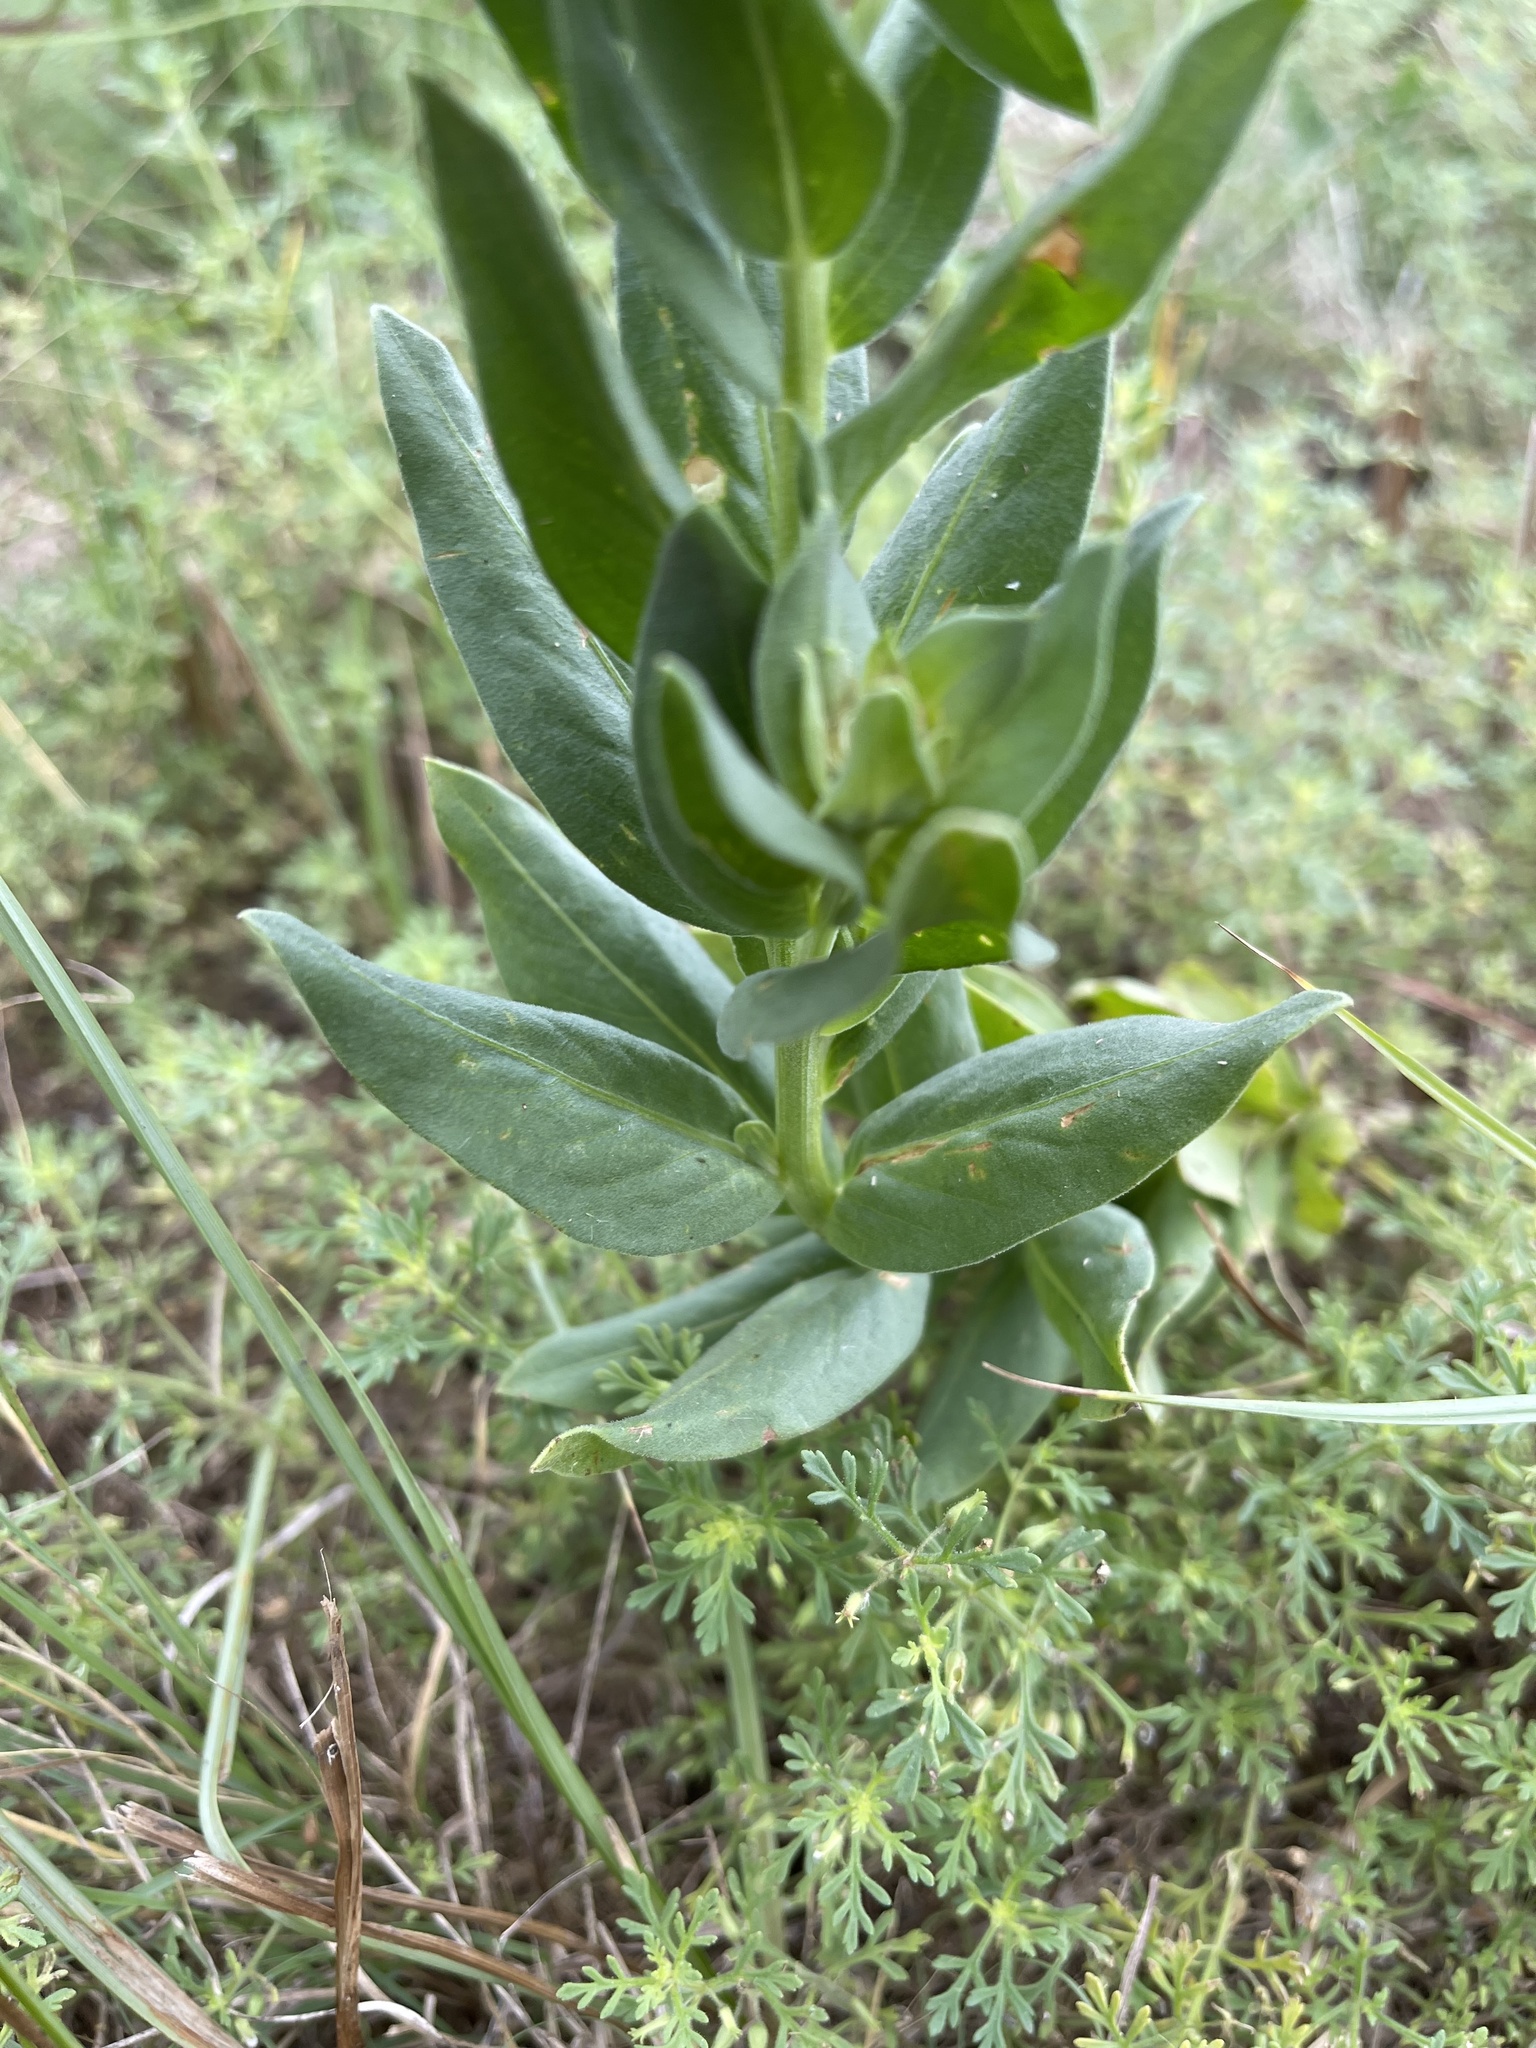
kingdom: Plantae
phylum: Tracheophyta
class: Magnoliopsida
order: Asterales
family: Asteraceae
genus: Plectocephalus
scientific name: Plectocephalus americanus
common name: American basket-flower
